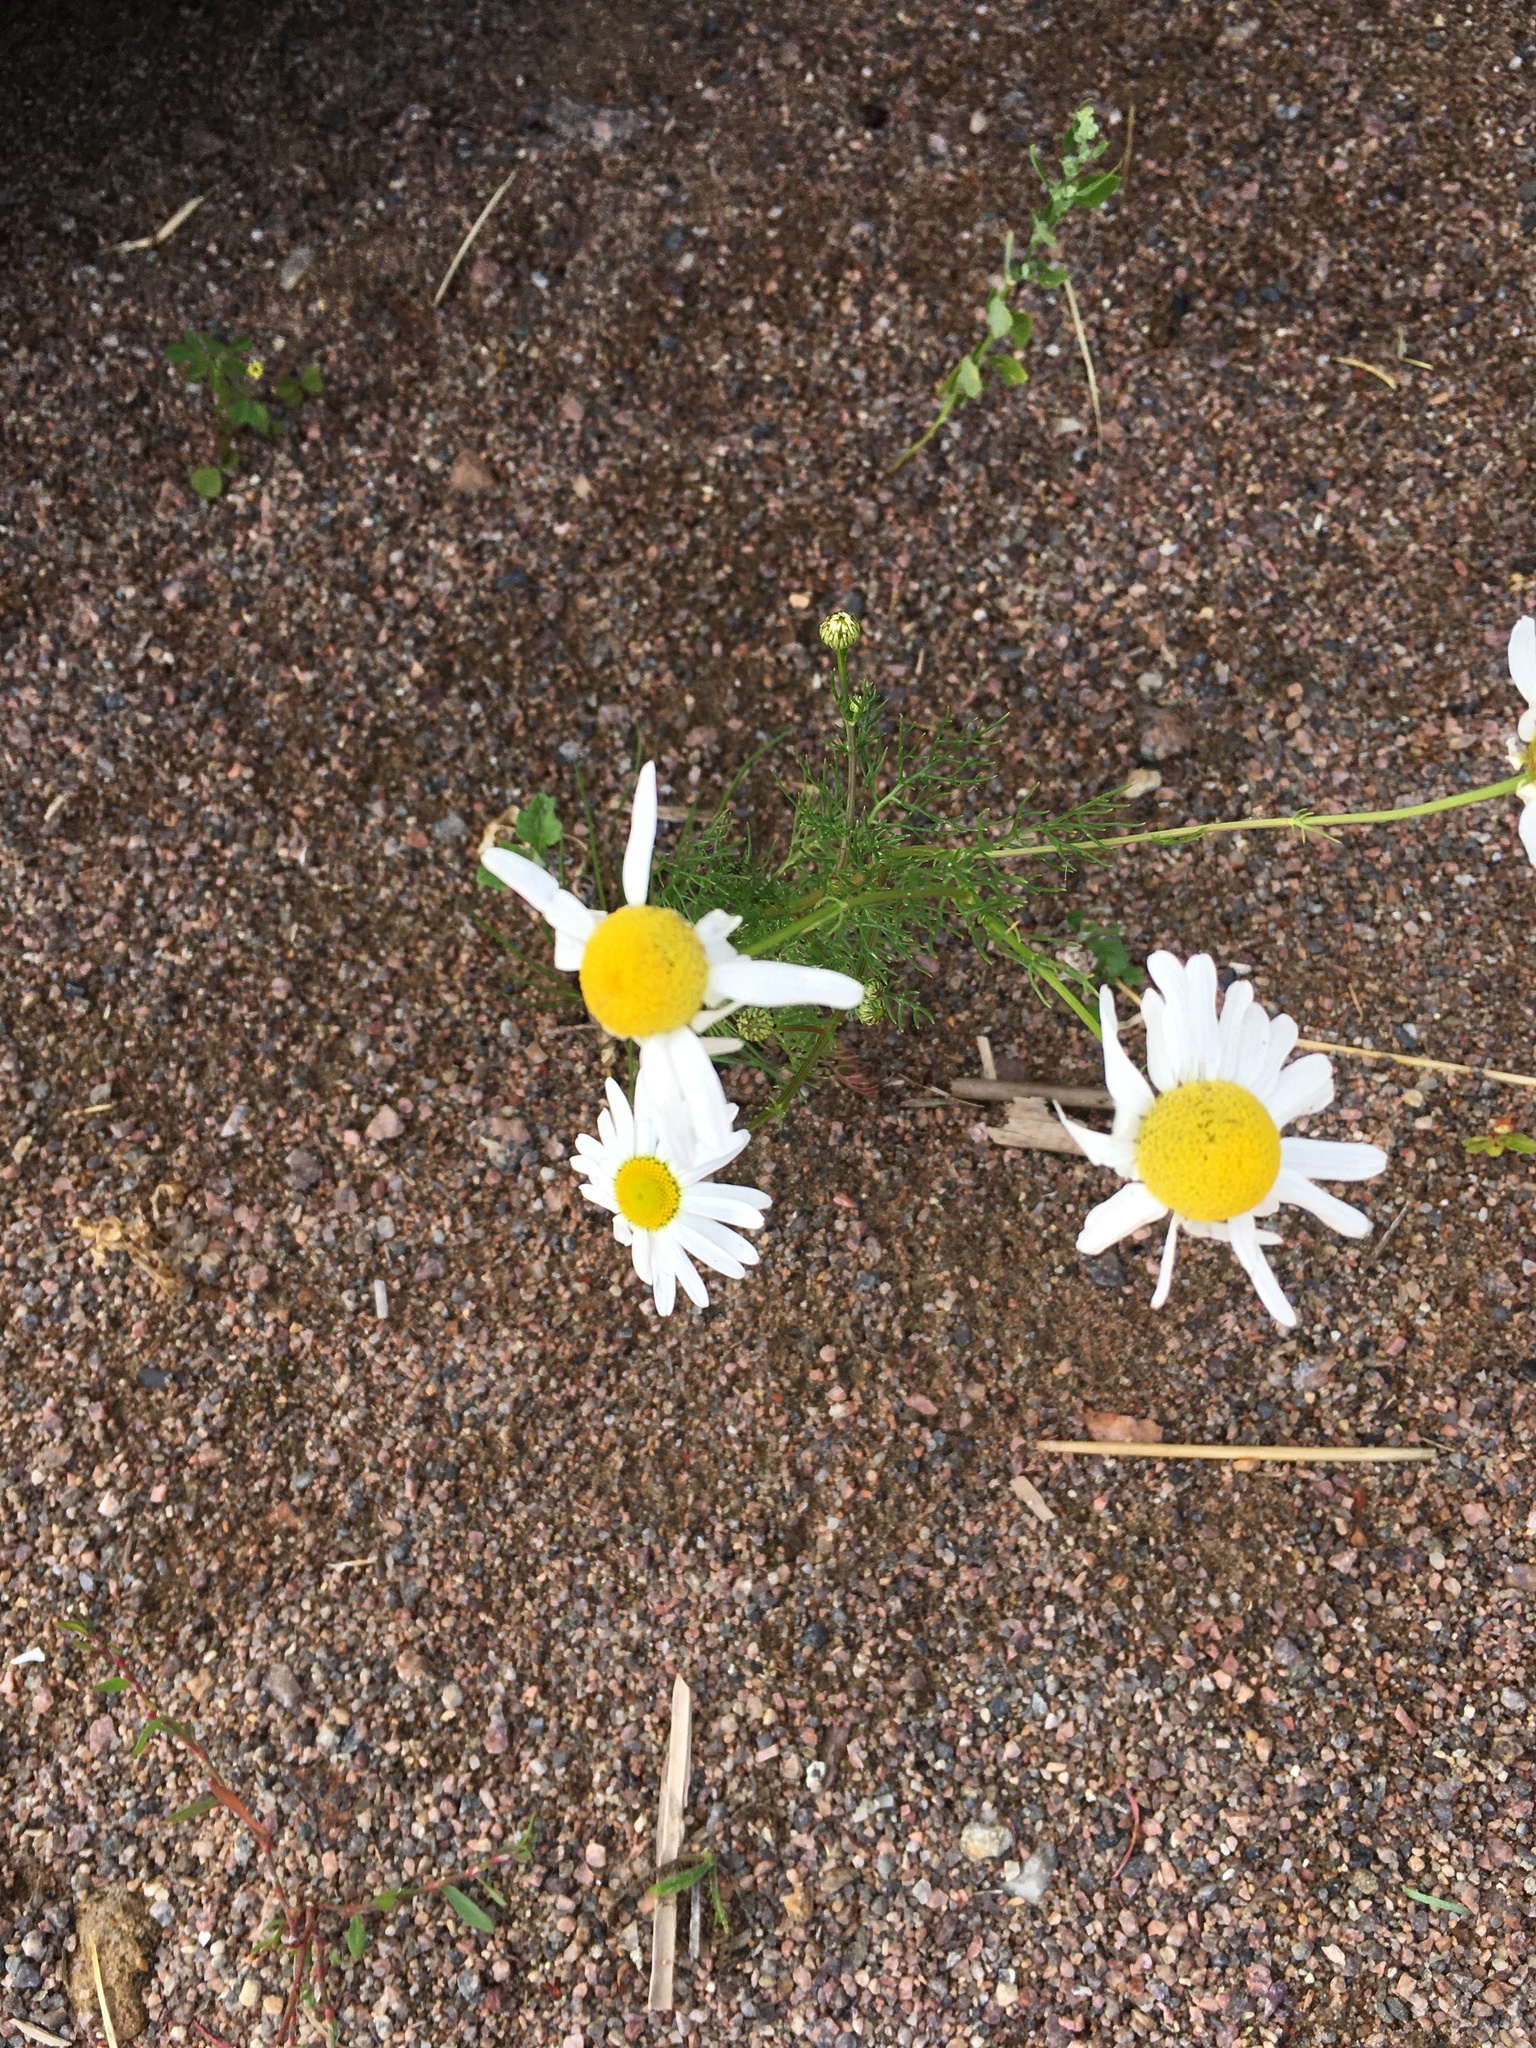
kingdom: Plantae
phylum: Tracheophyta
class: Magnoliopsida
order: Asterales
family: Asteraceae
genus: Tripleurospermum
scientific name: Tripleurospermum inodorum
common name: Scentless mayweed
